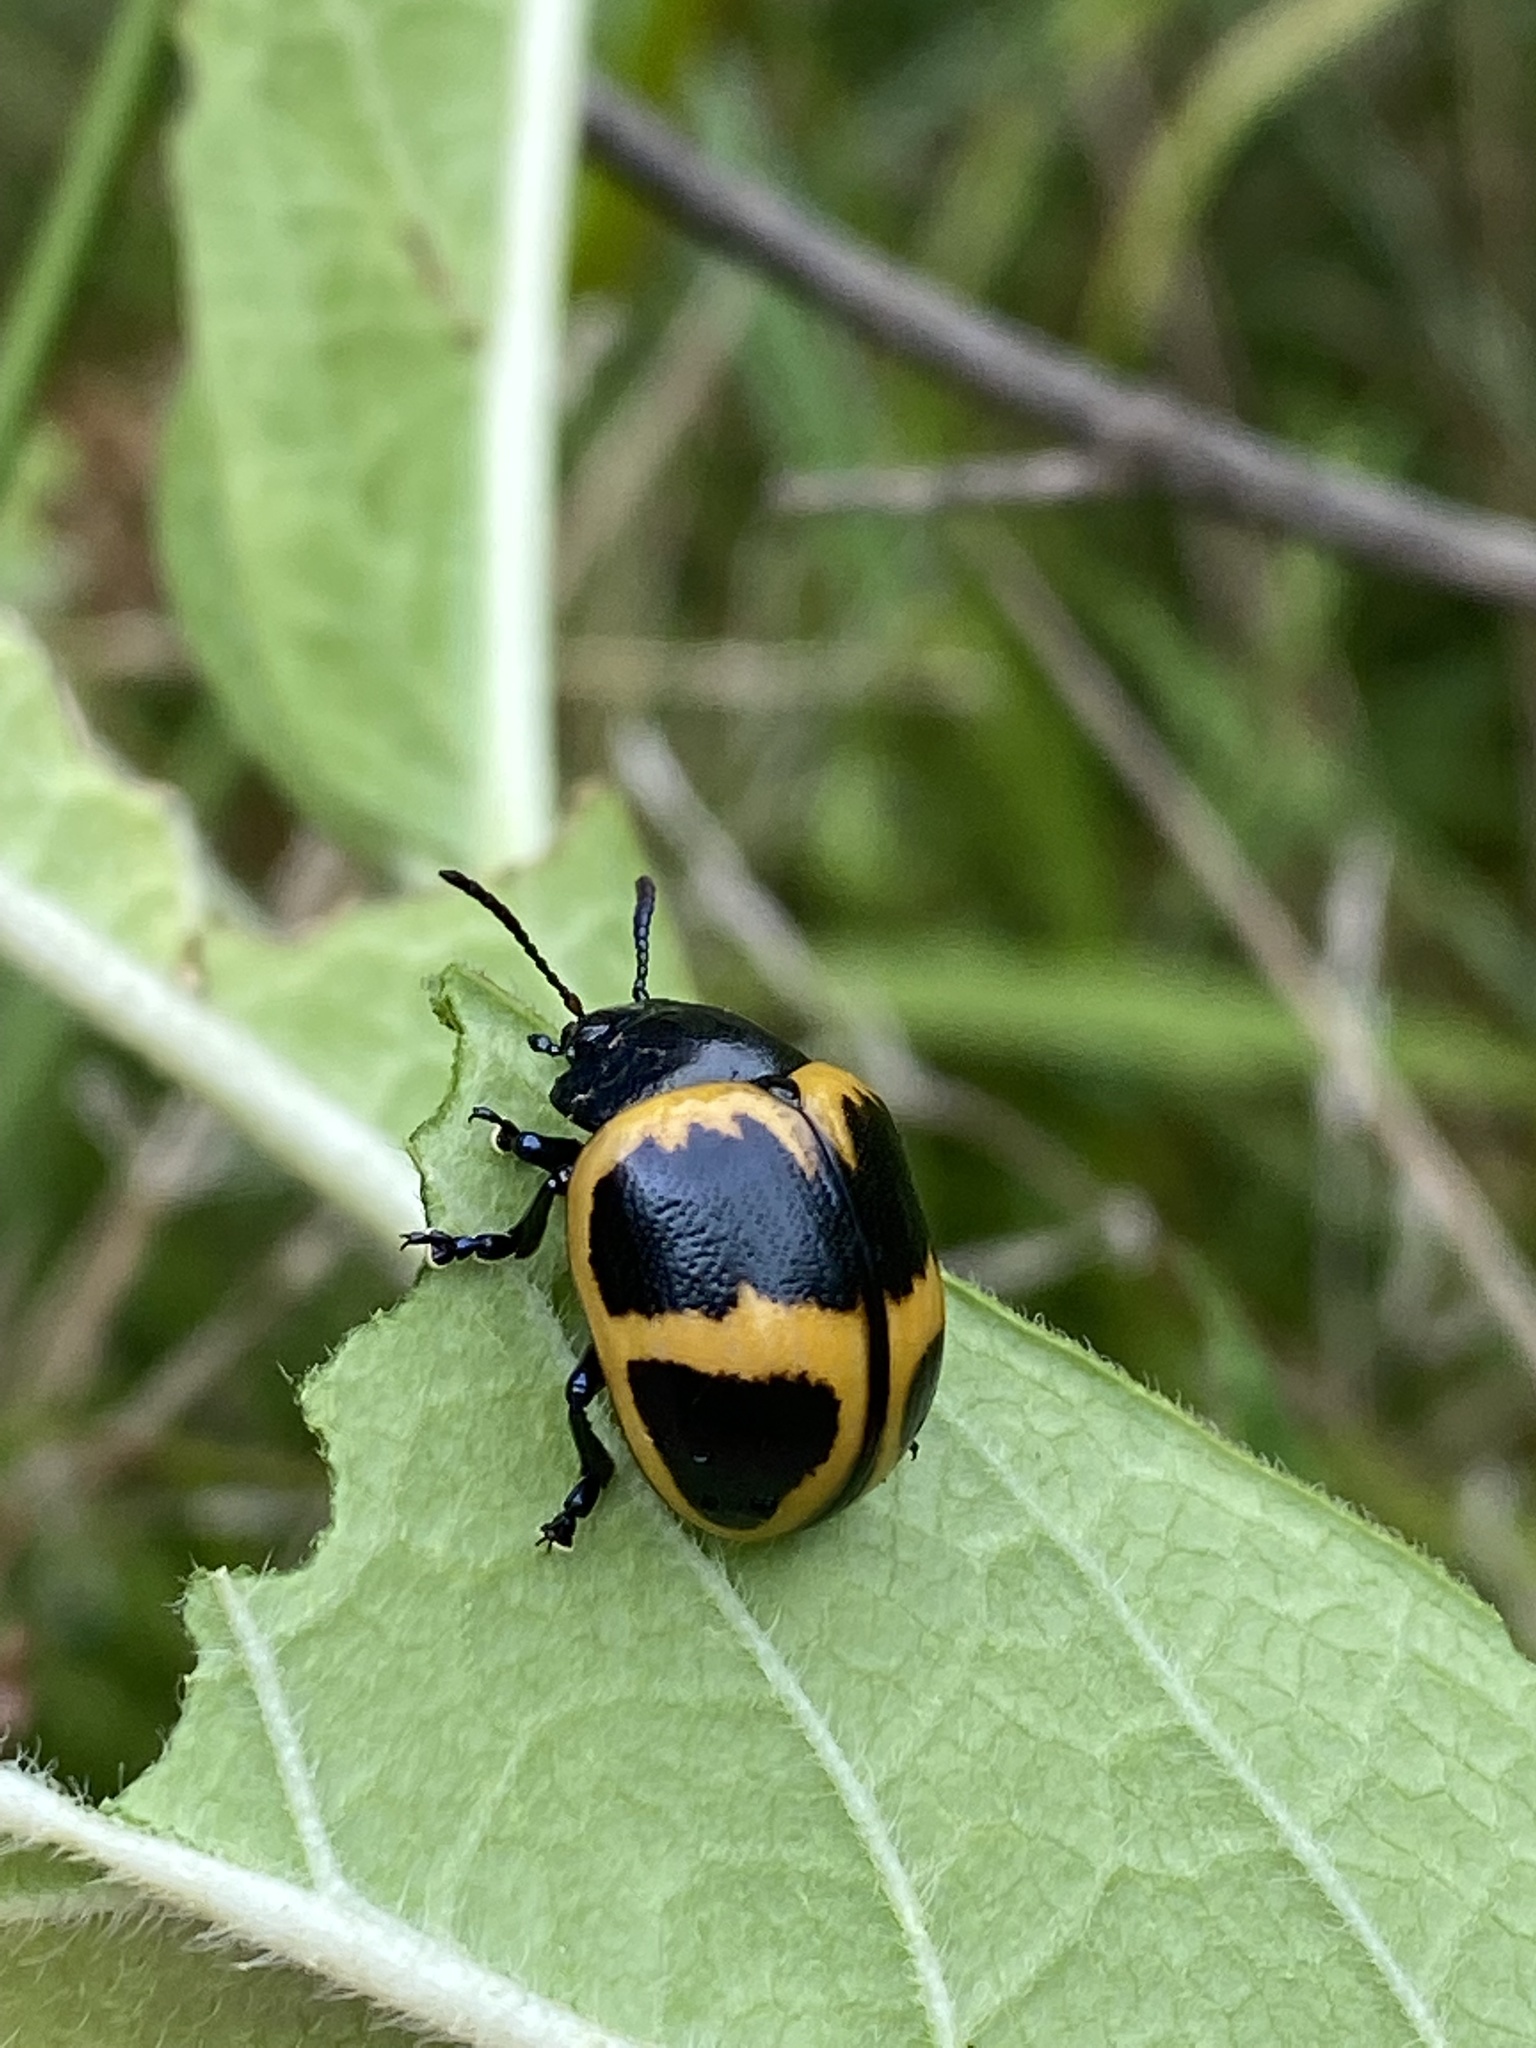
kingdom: Animalia
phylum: Arthropoda
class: Insecta
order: Coleoptera
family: Chrysomelidae
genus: Labidomera
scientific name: Labidomera clivicollis
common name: Swamp milkweed leaf beetle
